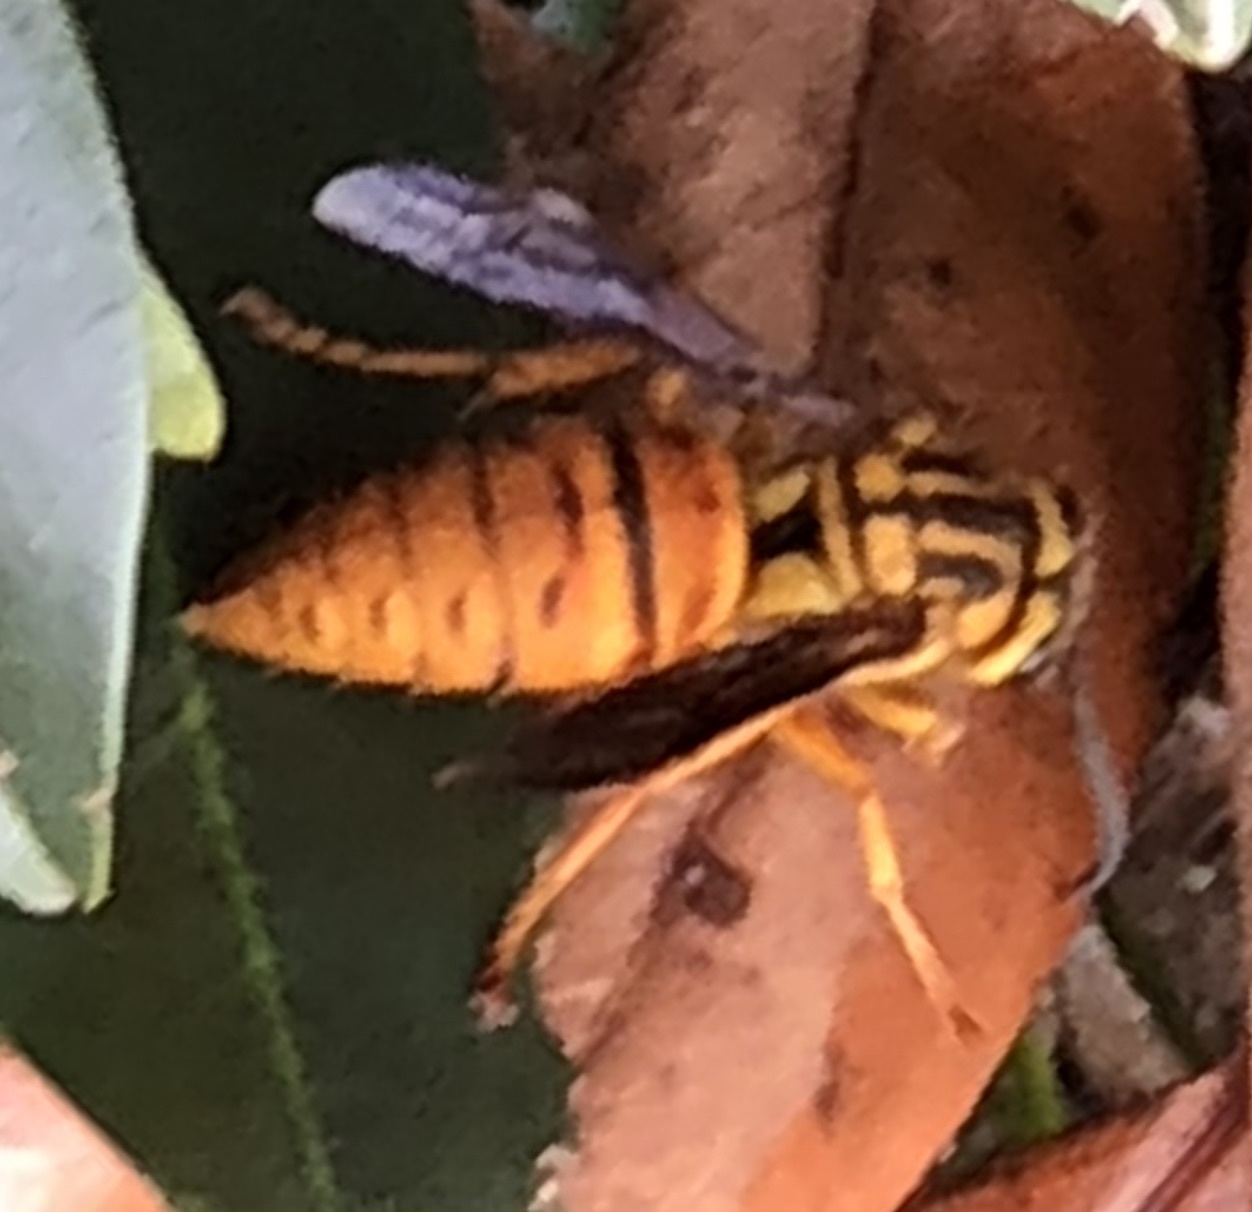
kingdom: Animalia
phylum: Arthropoda
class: Insecta
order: Hymenoptera
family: Vespidae
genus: Vespula
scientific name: Vespula squamosa
